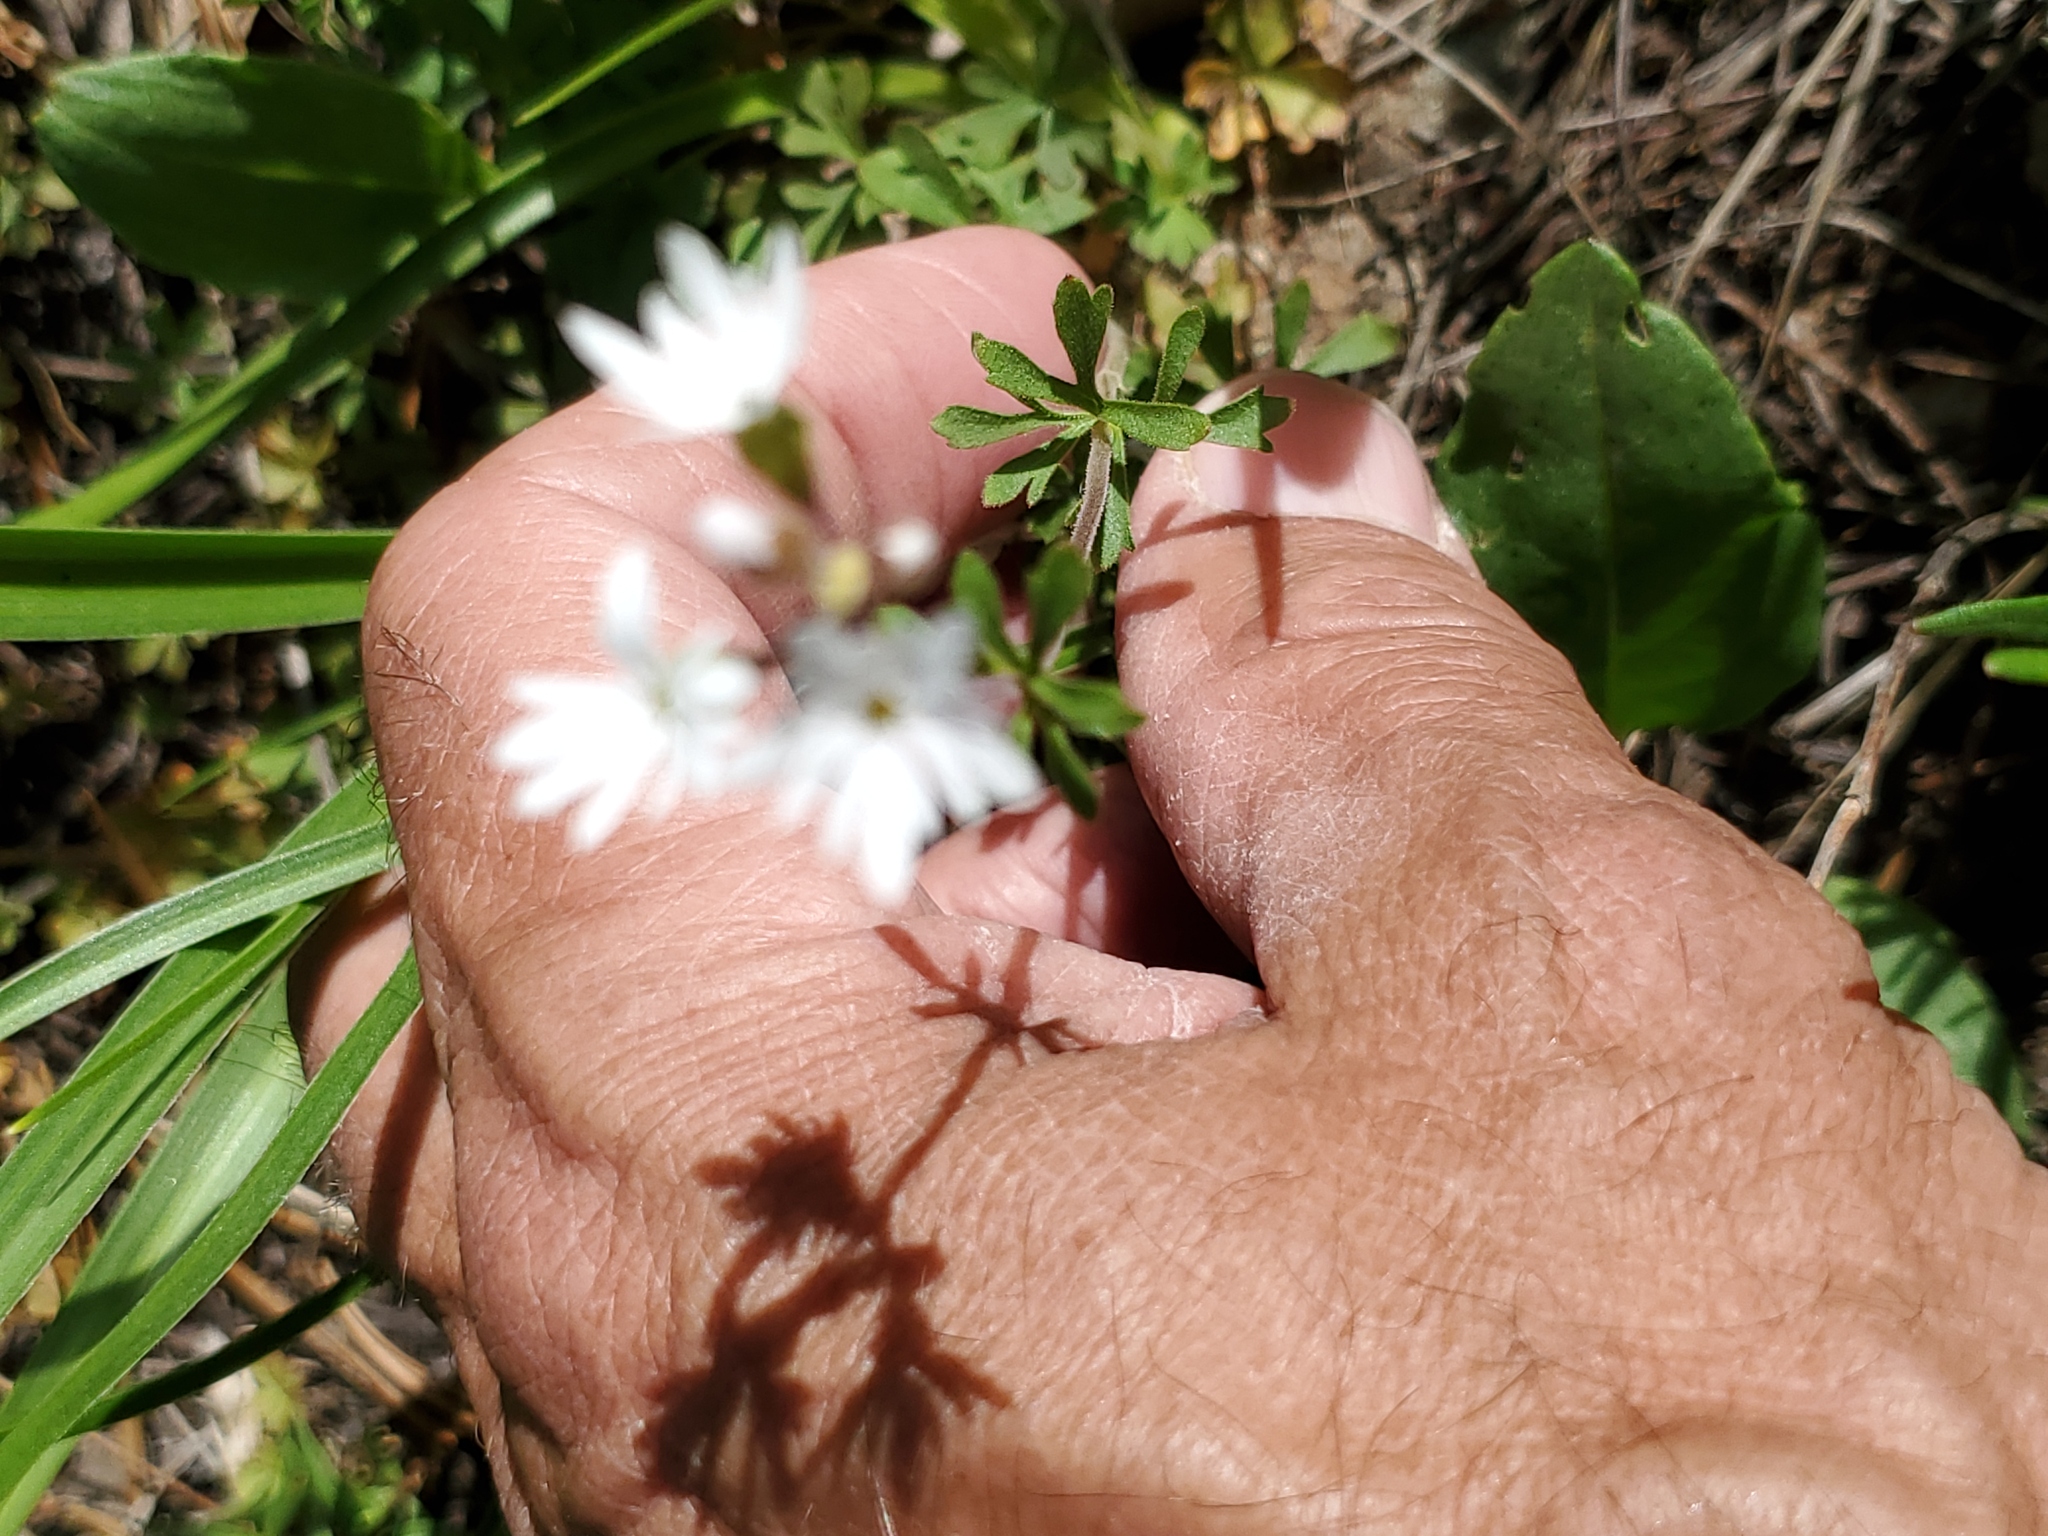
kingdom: Plantae
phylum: Tracheophyta
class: Magnoliopsida
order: Saxifragales
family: Saxifragaceae
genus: Lithophragma
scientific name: Lithophragma parviflorum
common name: Small-flowered fringe-cup
